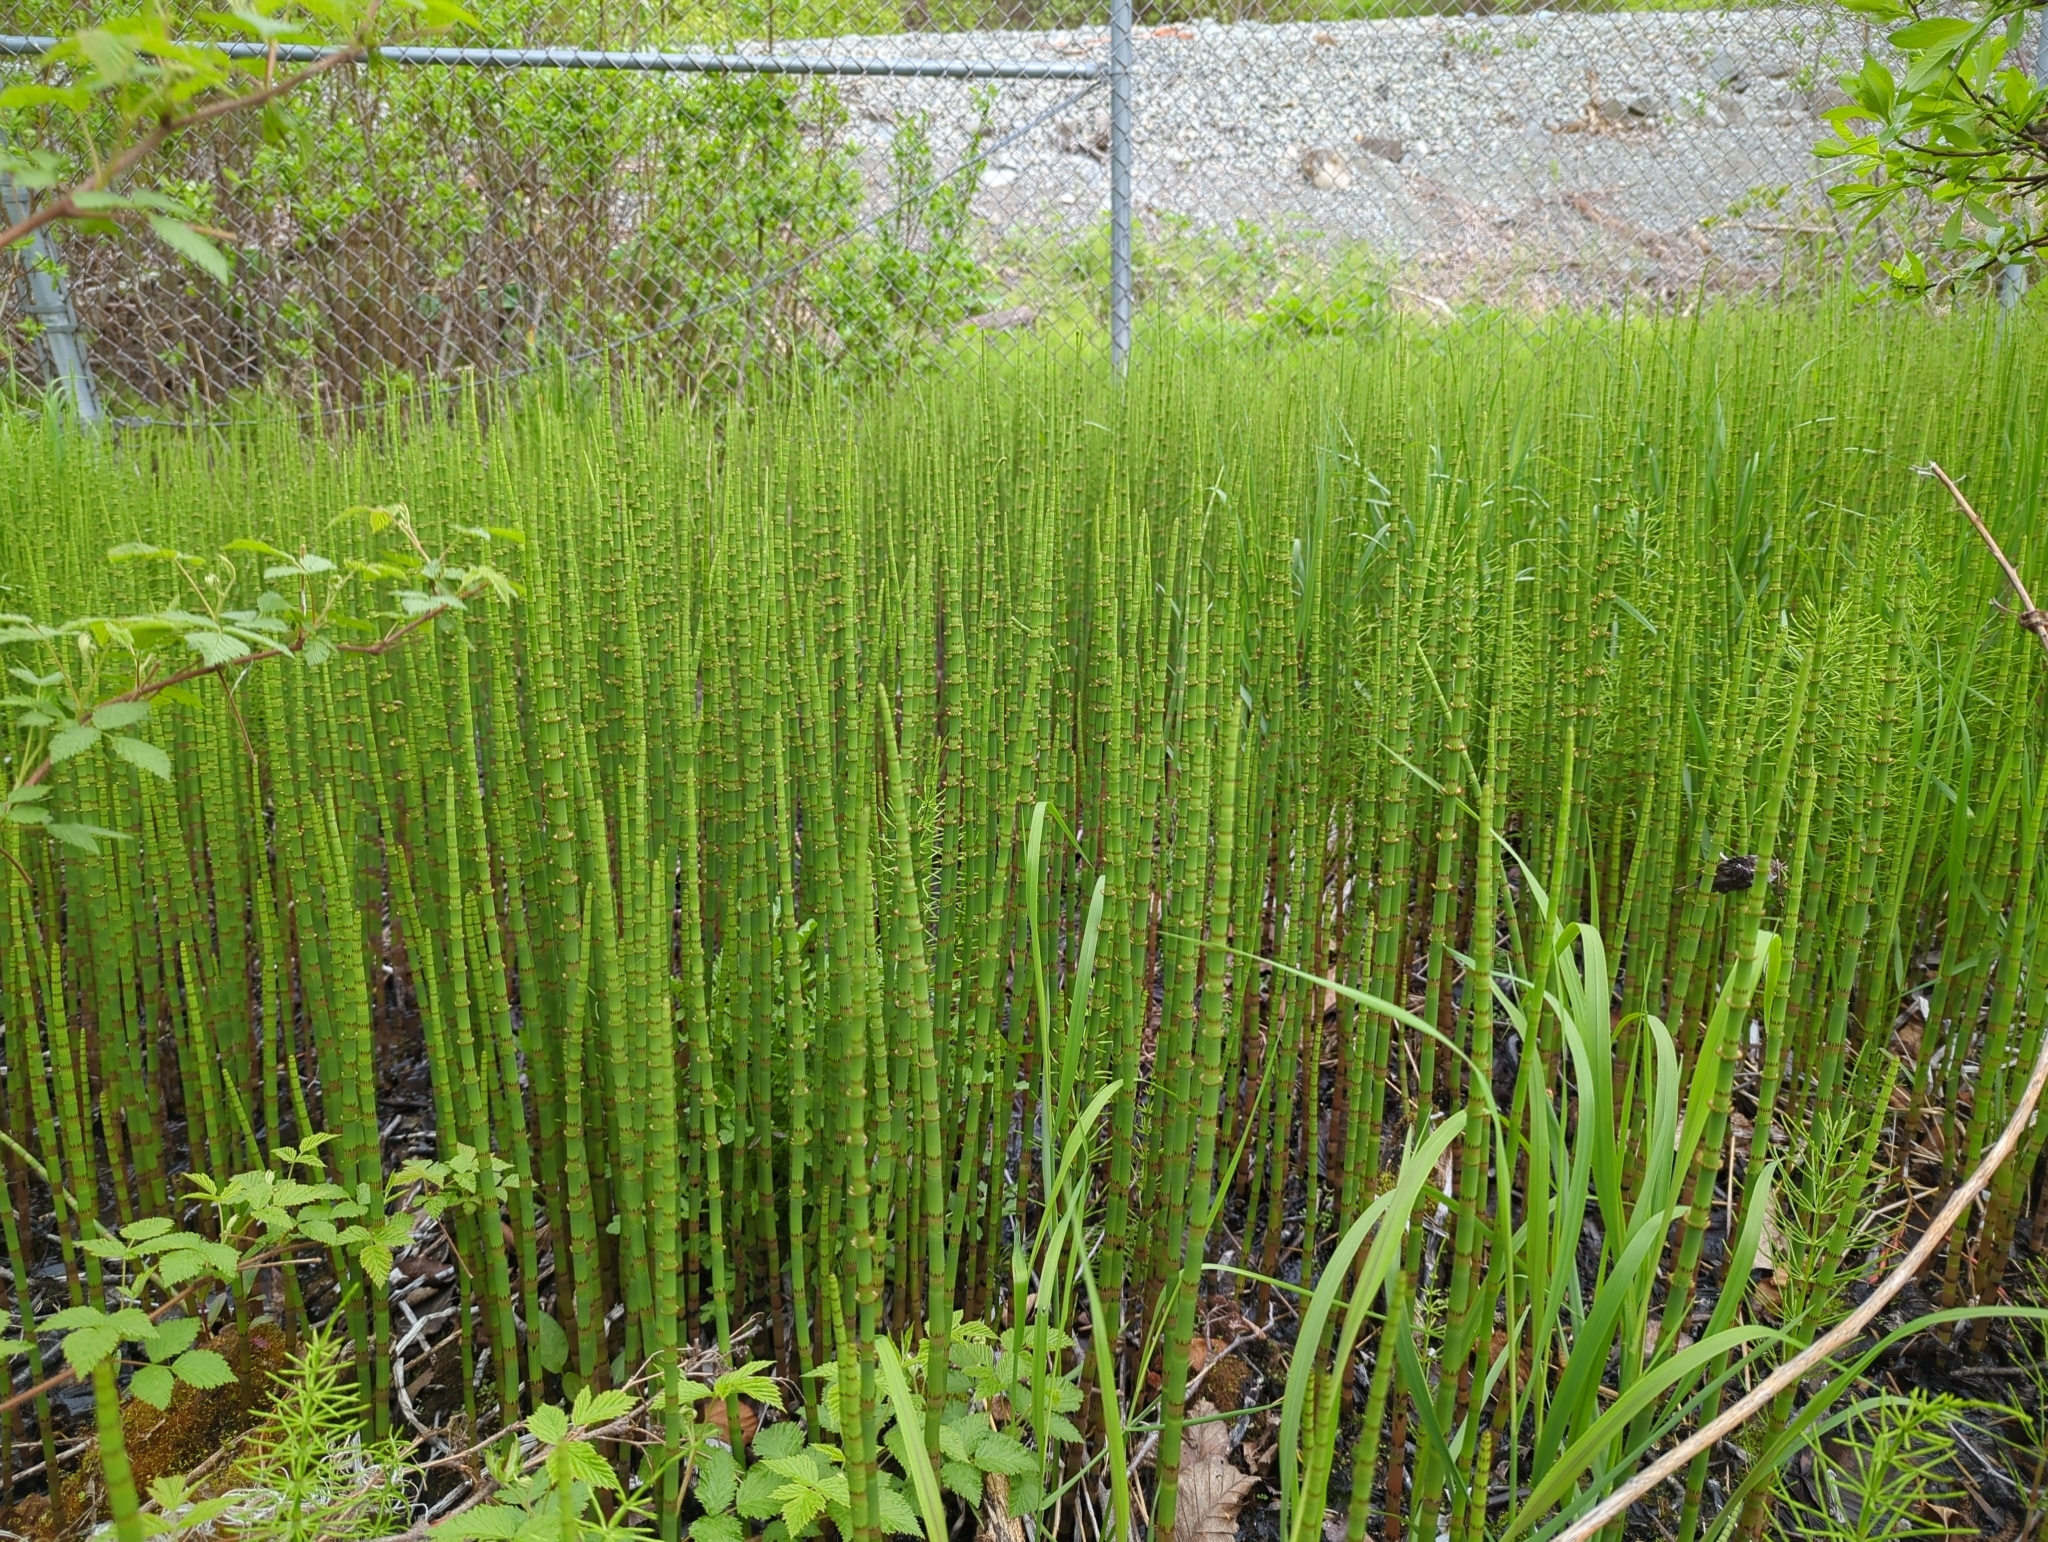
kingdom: Plantae
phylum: Tracheophyta
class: Polypodiopsida
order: Equisetales
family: Equisetaceae
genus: Equisetum
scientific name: Equisetum fluviatile
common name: Water horsetail
